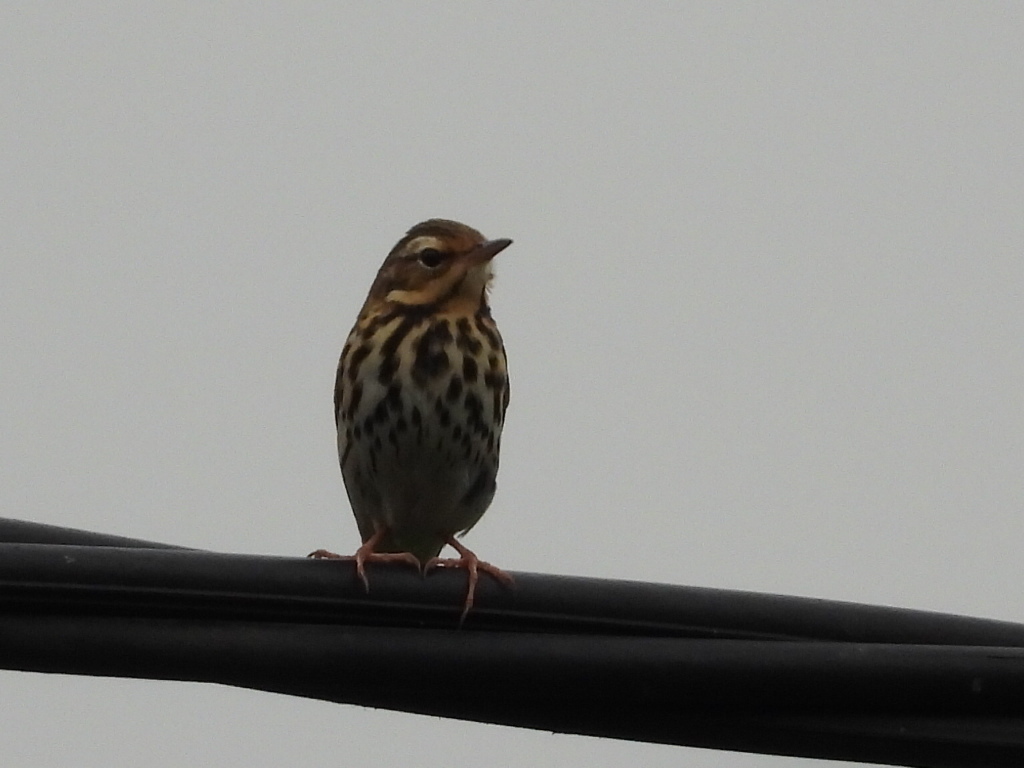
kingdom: Animalia
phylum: Chordata
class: Aves
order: Passeriformes
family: Motacillidae
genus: Anthus
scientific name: Anthus hodgsoni
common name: Olive-backed pipit
